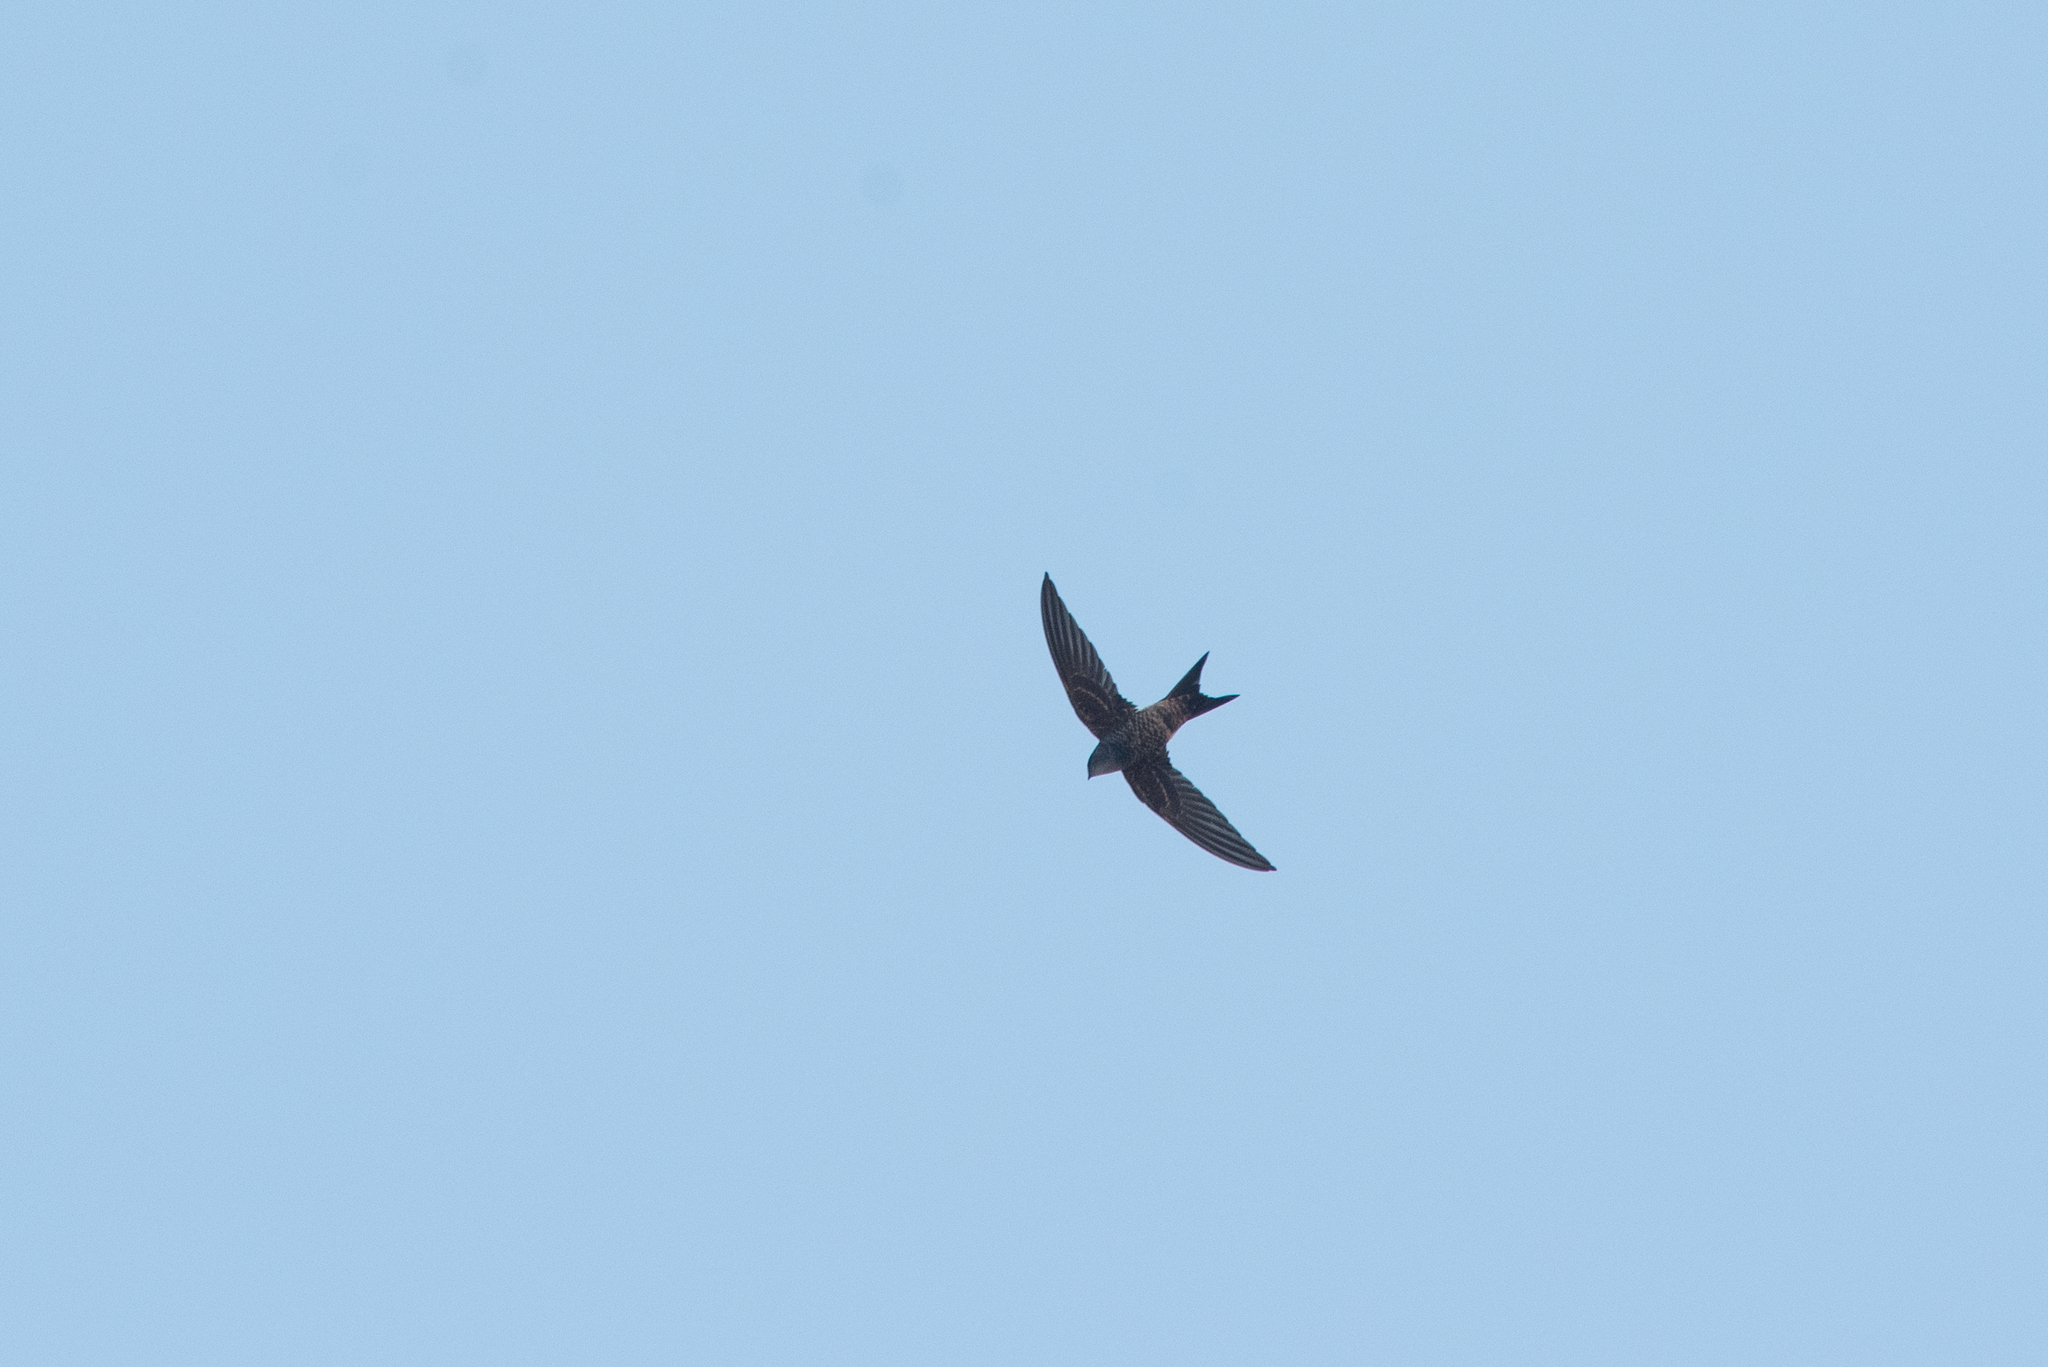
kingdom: Animalia
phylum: Chordata
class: Aves
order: Apodiformes
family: Apodidae
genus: Apus
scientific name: Apus pacificus
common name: Pacific swift
